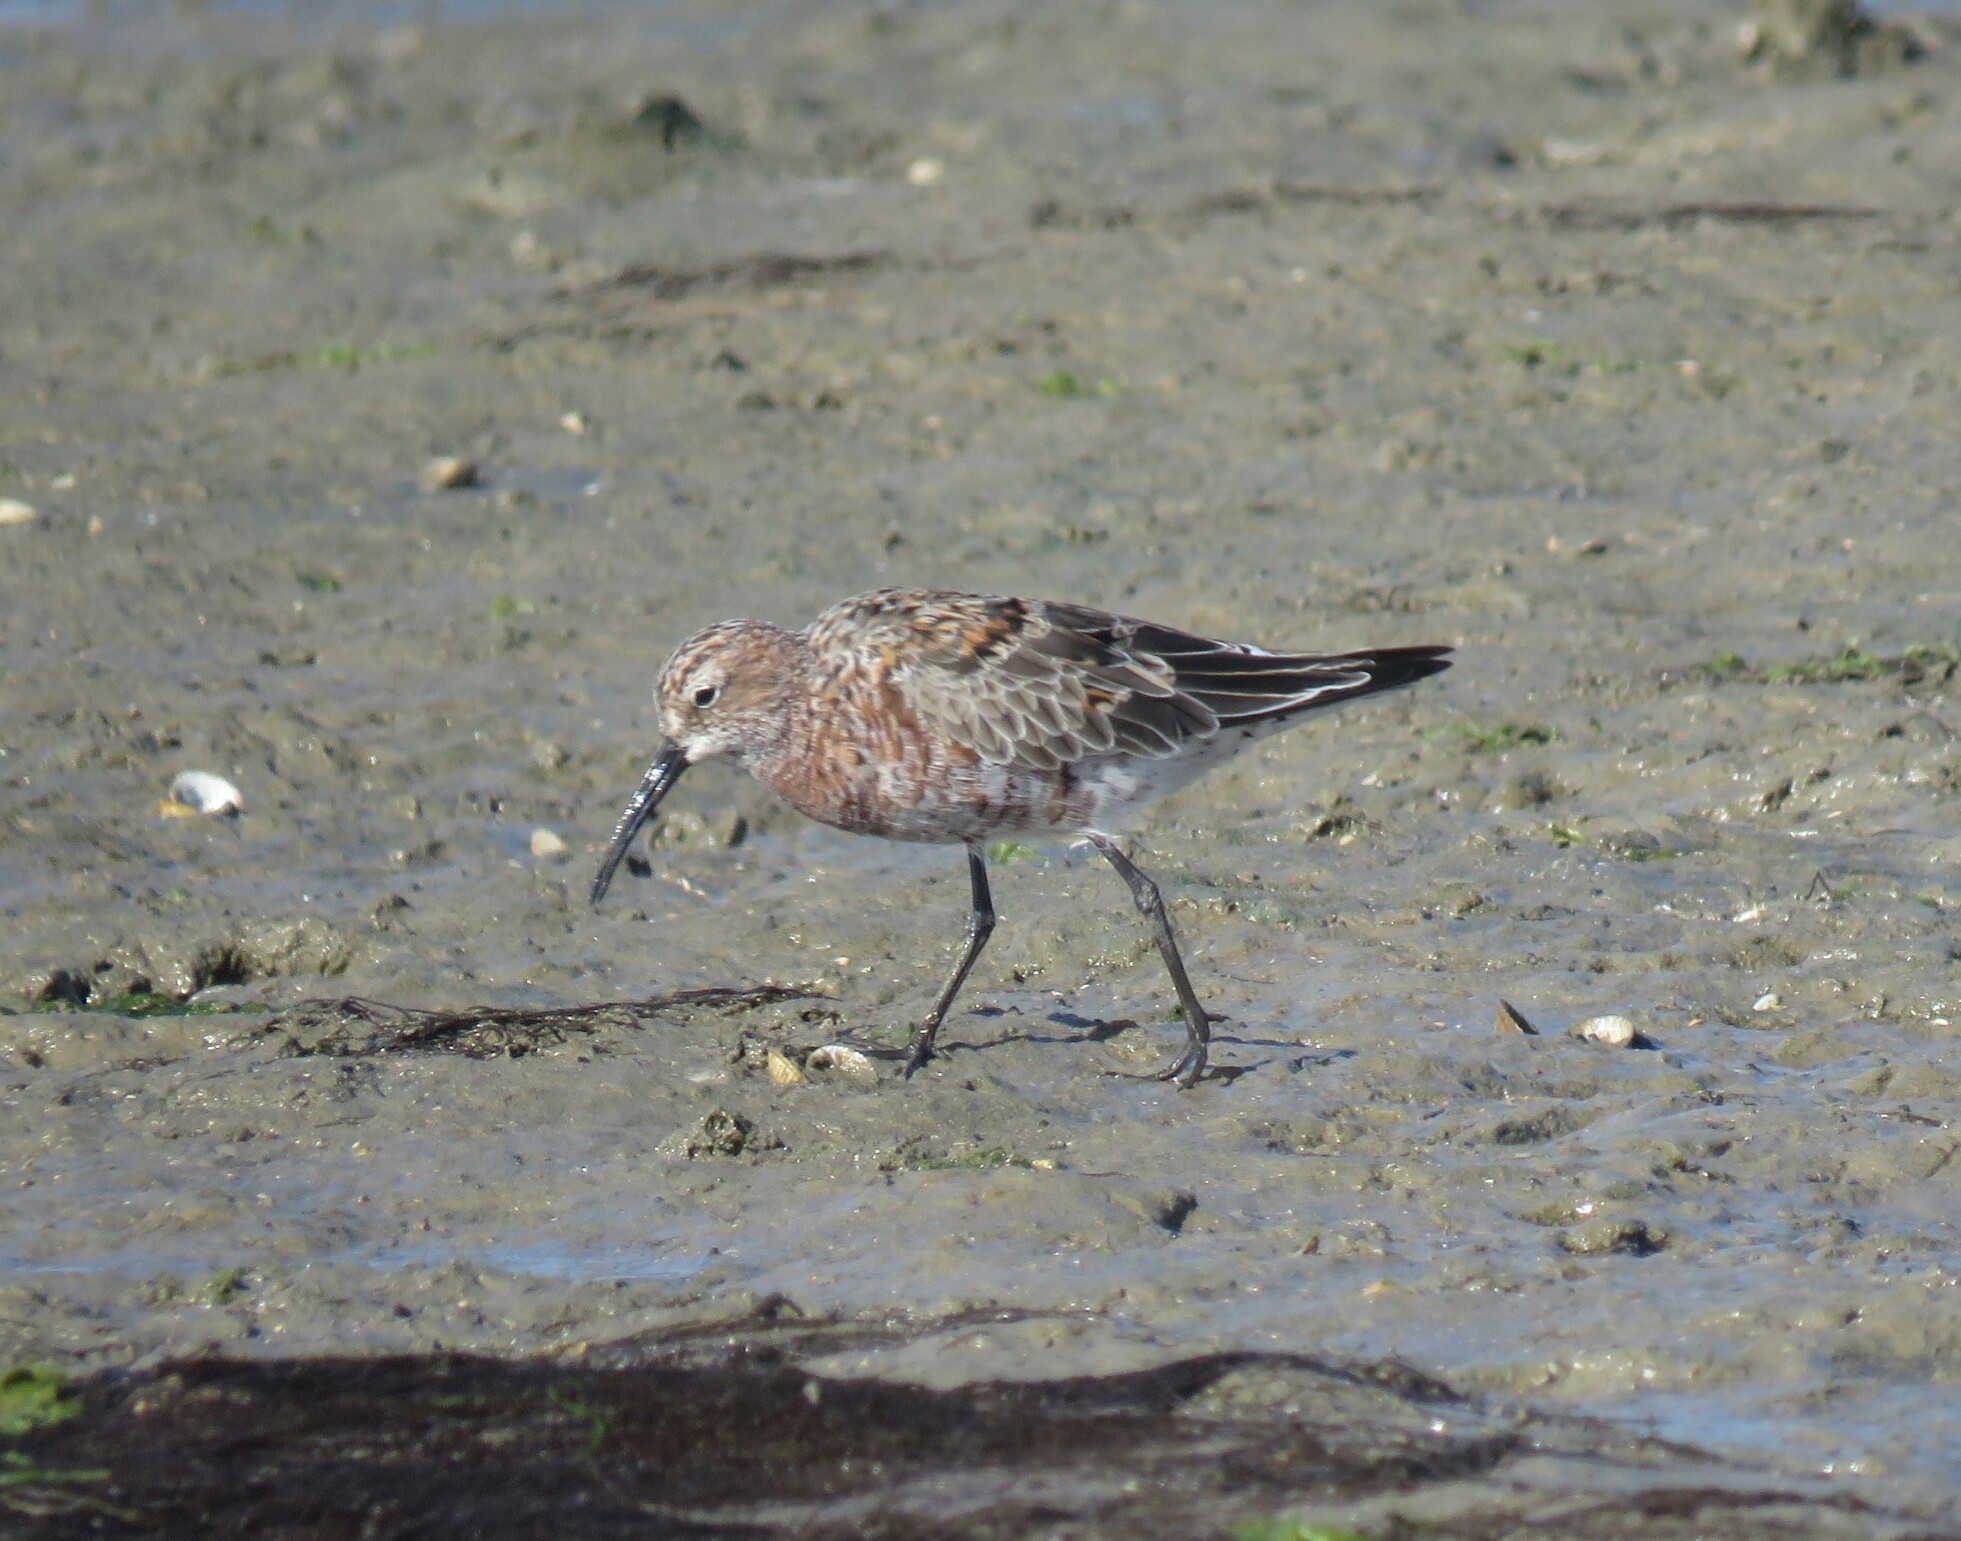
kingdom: Animalia
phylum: Chordata
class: Aves
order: Charadriiformes
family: Scolopacidae
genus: Calidris
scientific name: Calidris ferruginea
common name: Curlew sandpiper
